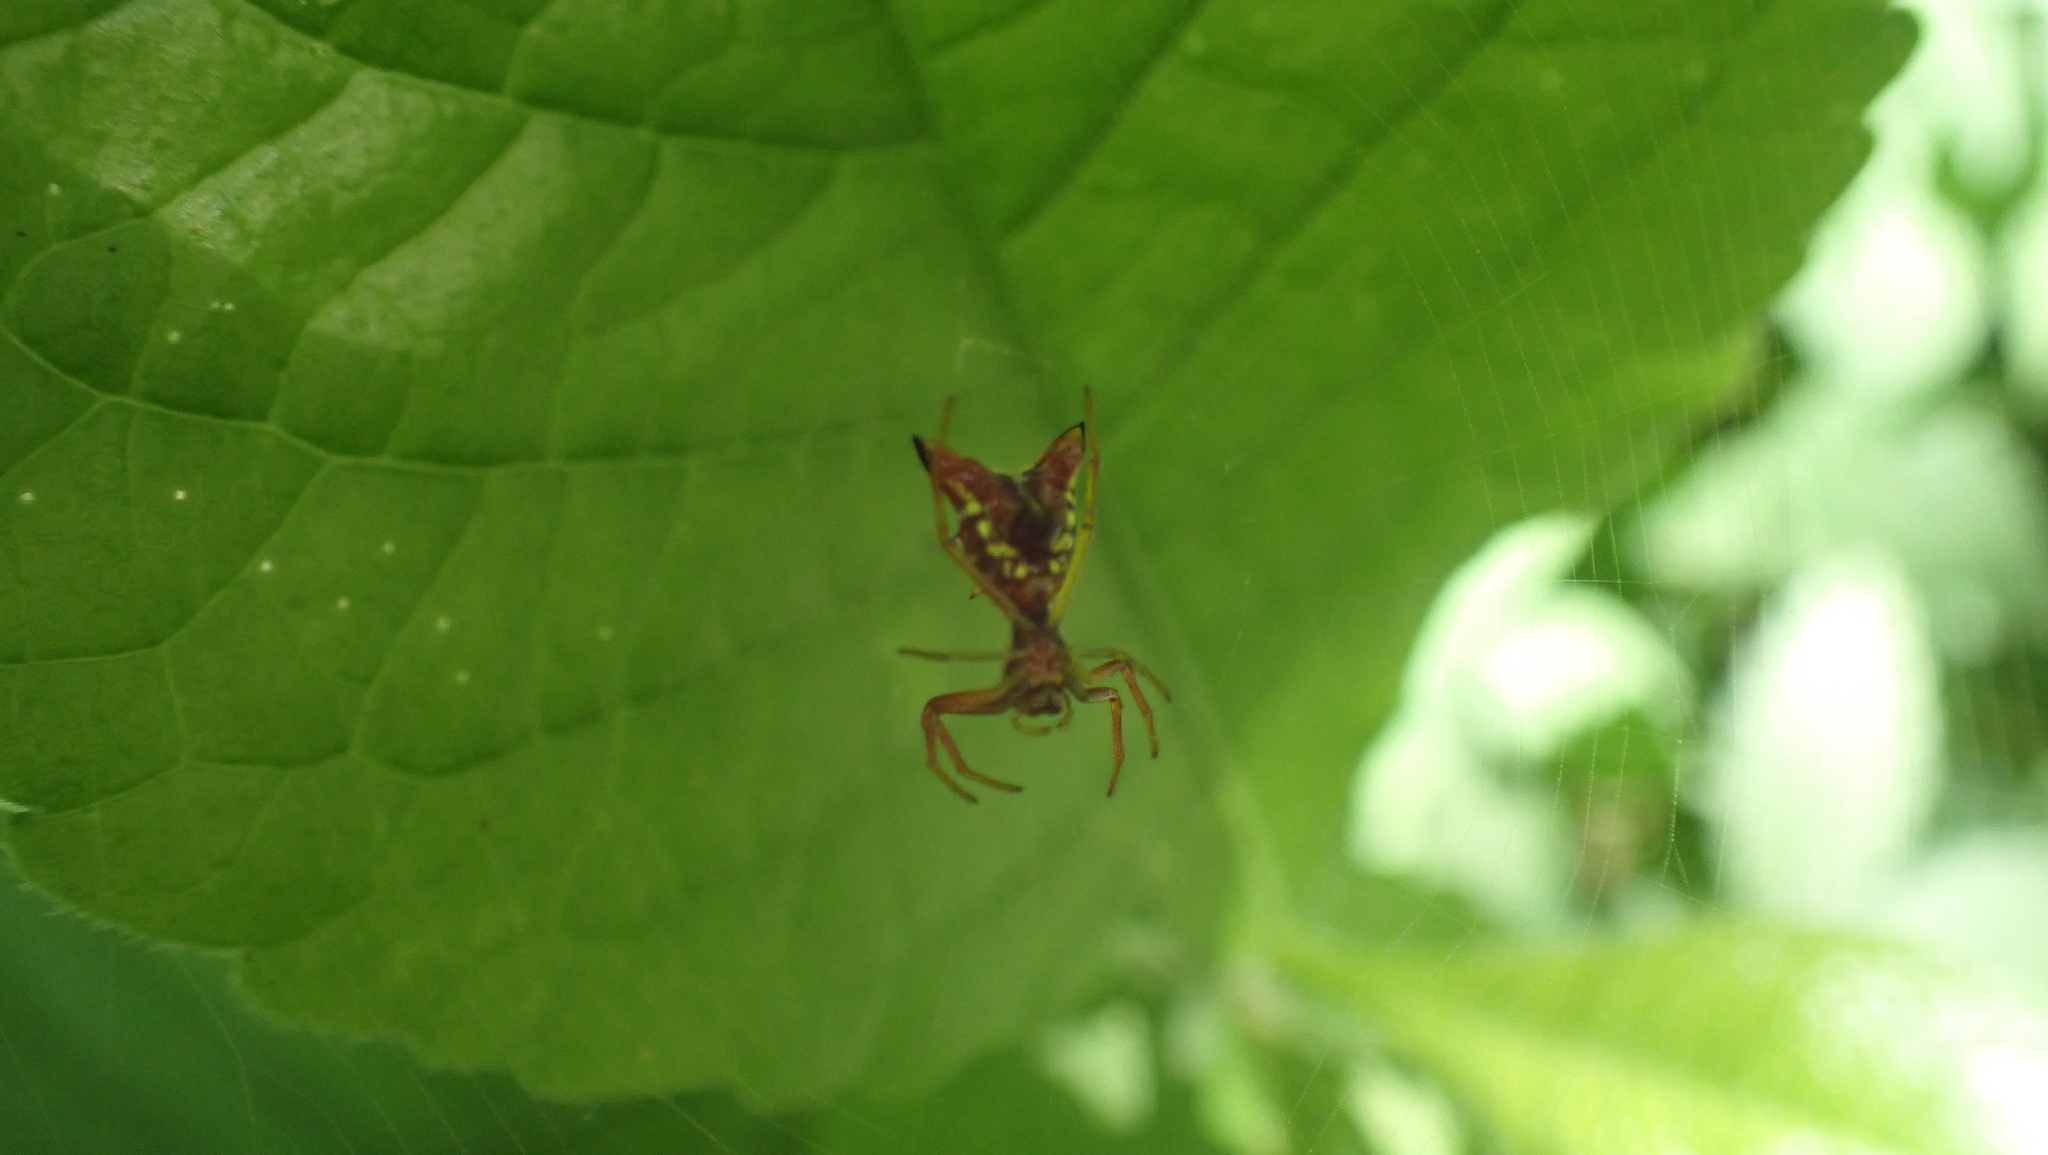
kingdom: Animalia
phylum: Arthropoda
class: Arachnida
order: Araneae
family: Araneidae
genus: Micrathena
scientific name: Micrathena sagittata
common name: Orb weavers
